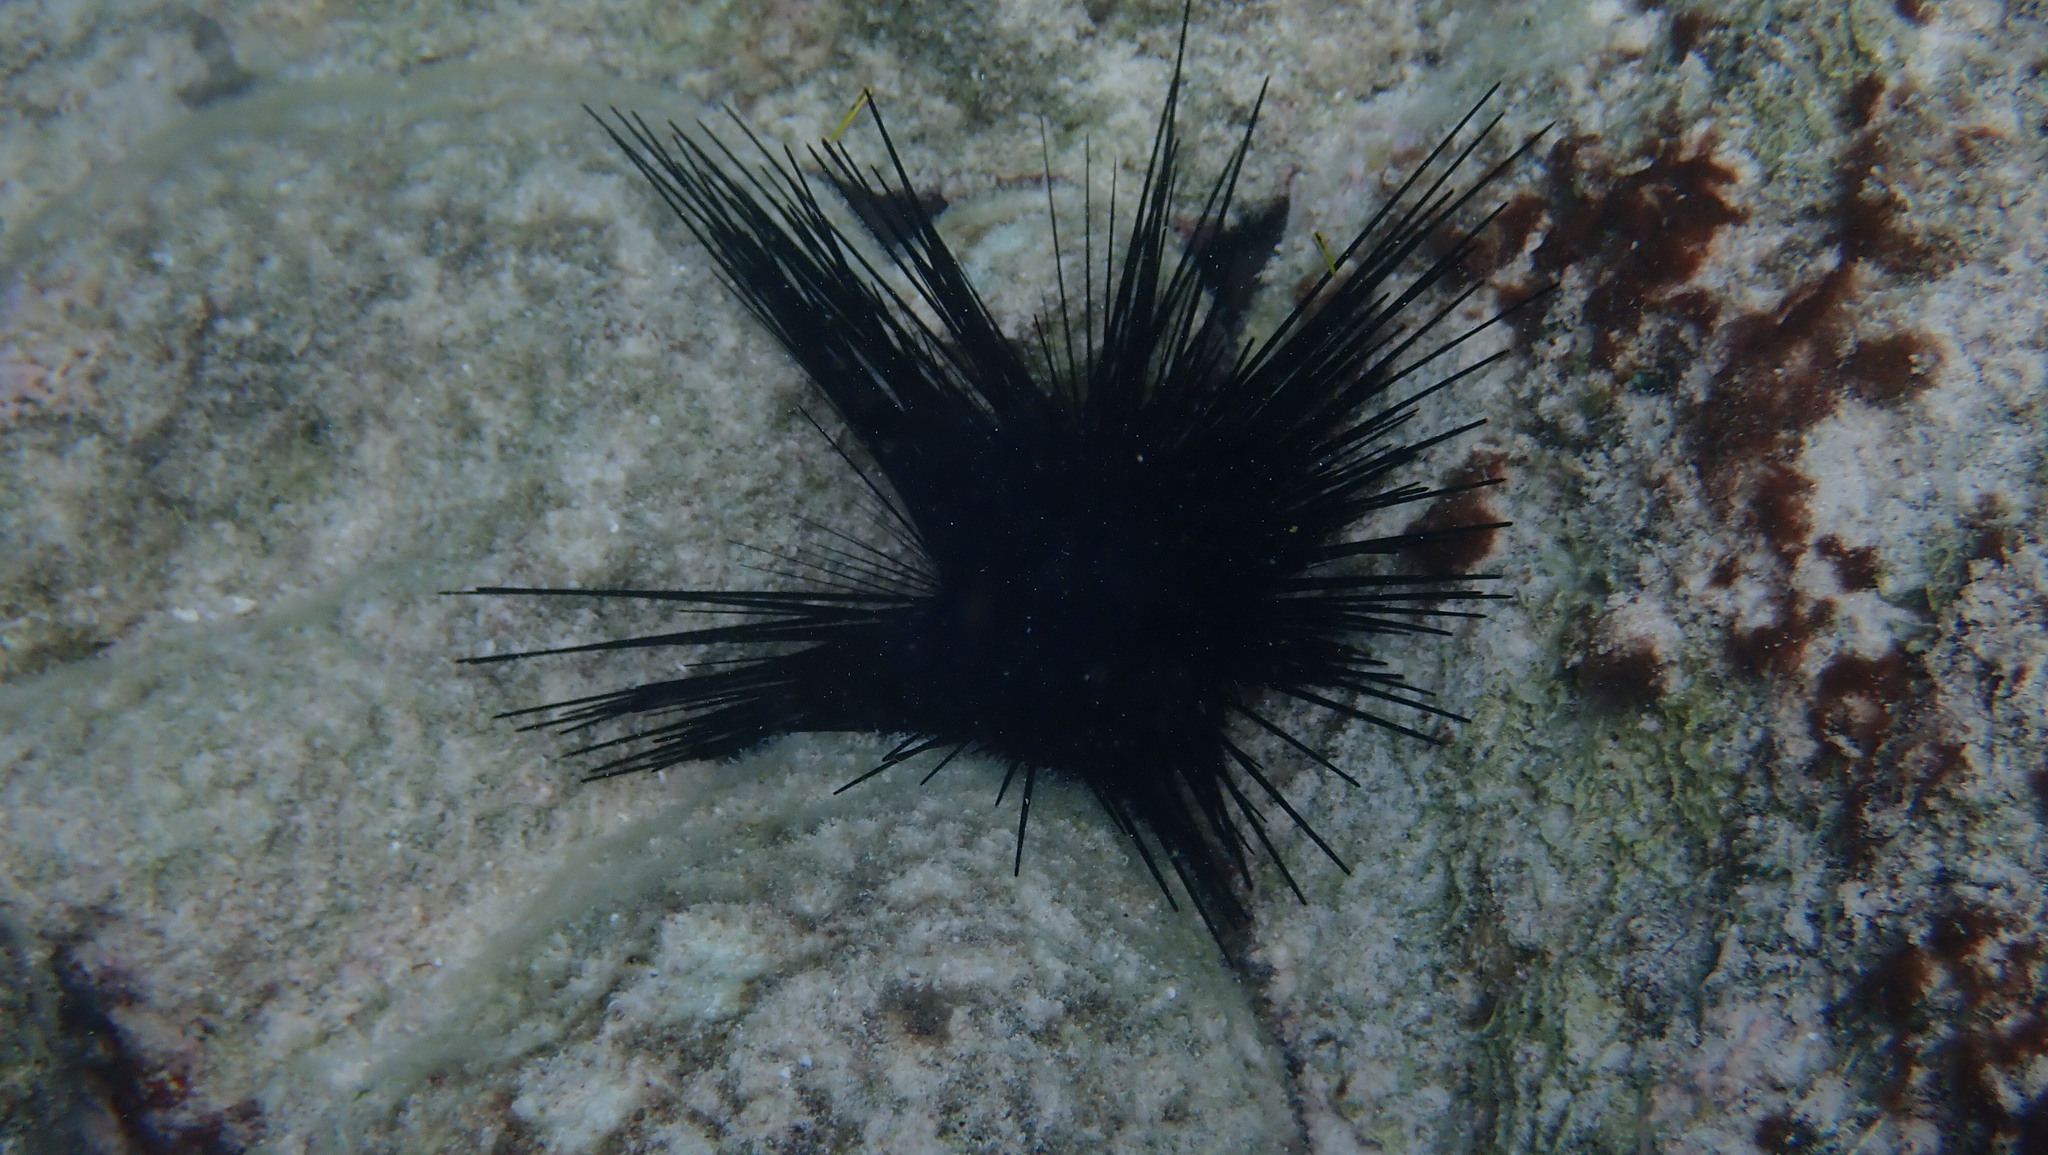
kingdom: Animalia
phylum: Echinodermata
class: Echinoidea
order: Diadematoida
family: Diadematidae
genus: Diadema
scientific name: Diadema antillarum
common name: Spiny urchin
